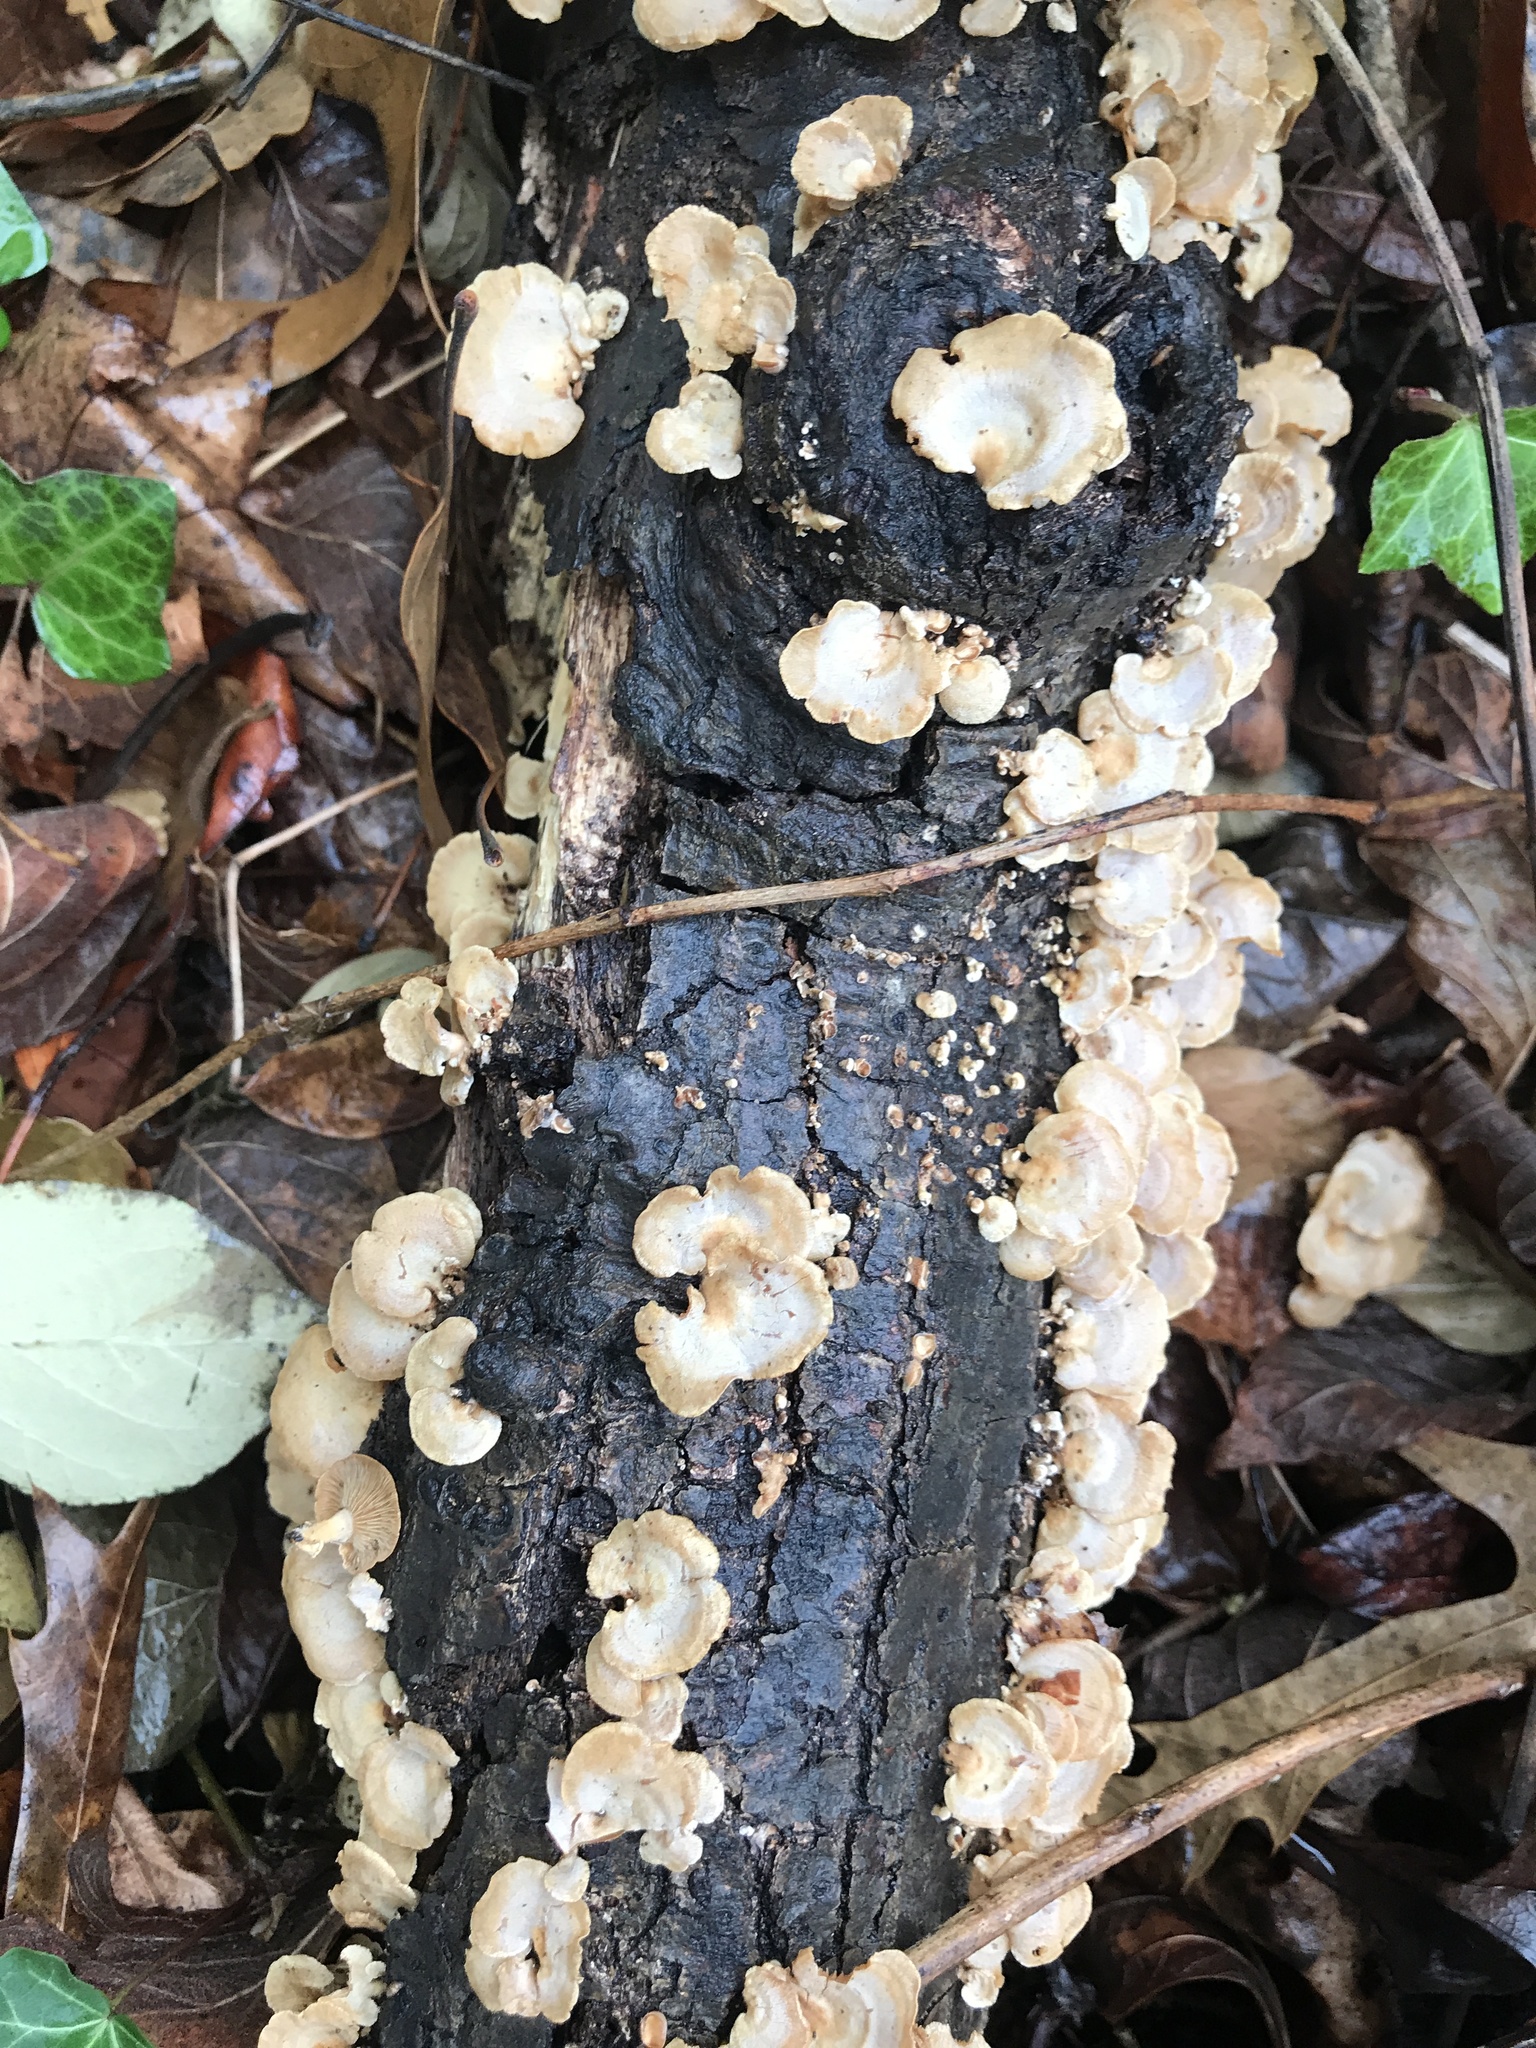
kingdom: Fungi
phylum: Basidiomycota
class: Agaricomycetes
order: Agaricales
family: Mycenaceae
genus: Panellus
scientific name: Panellus stipticus
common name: Bitter oysterling
